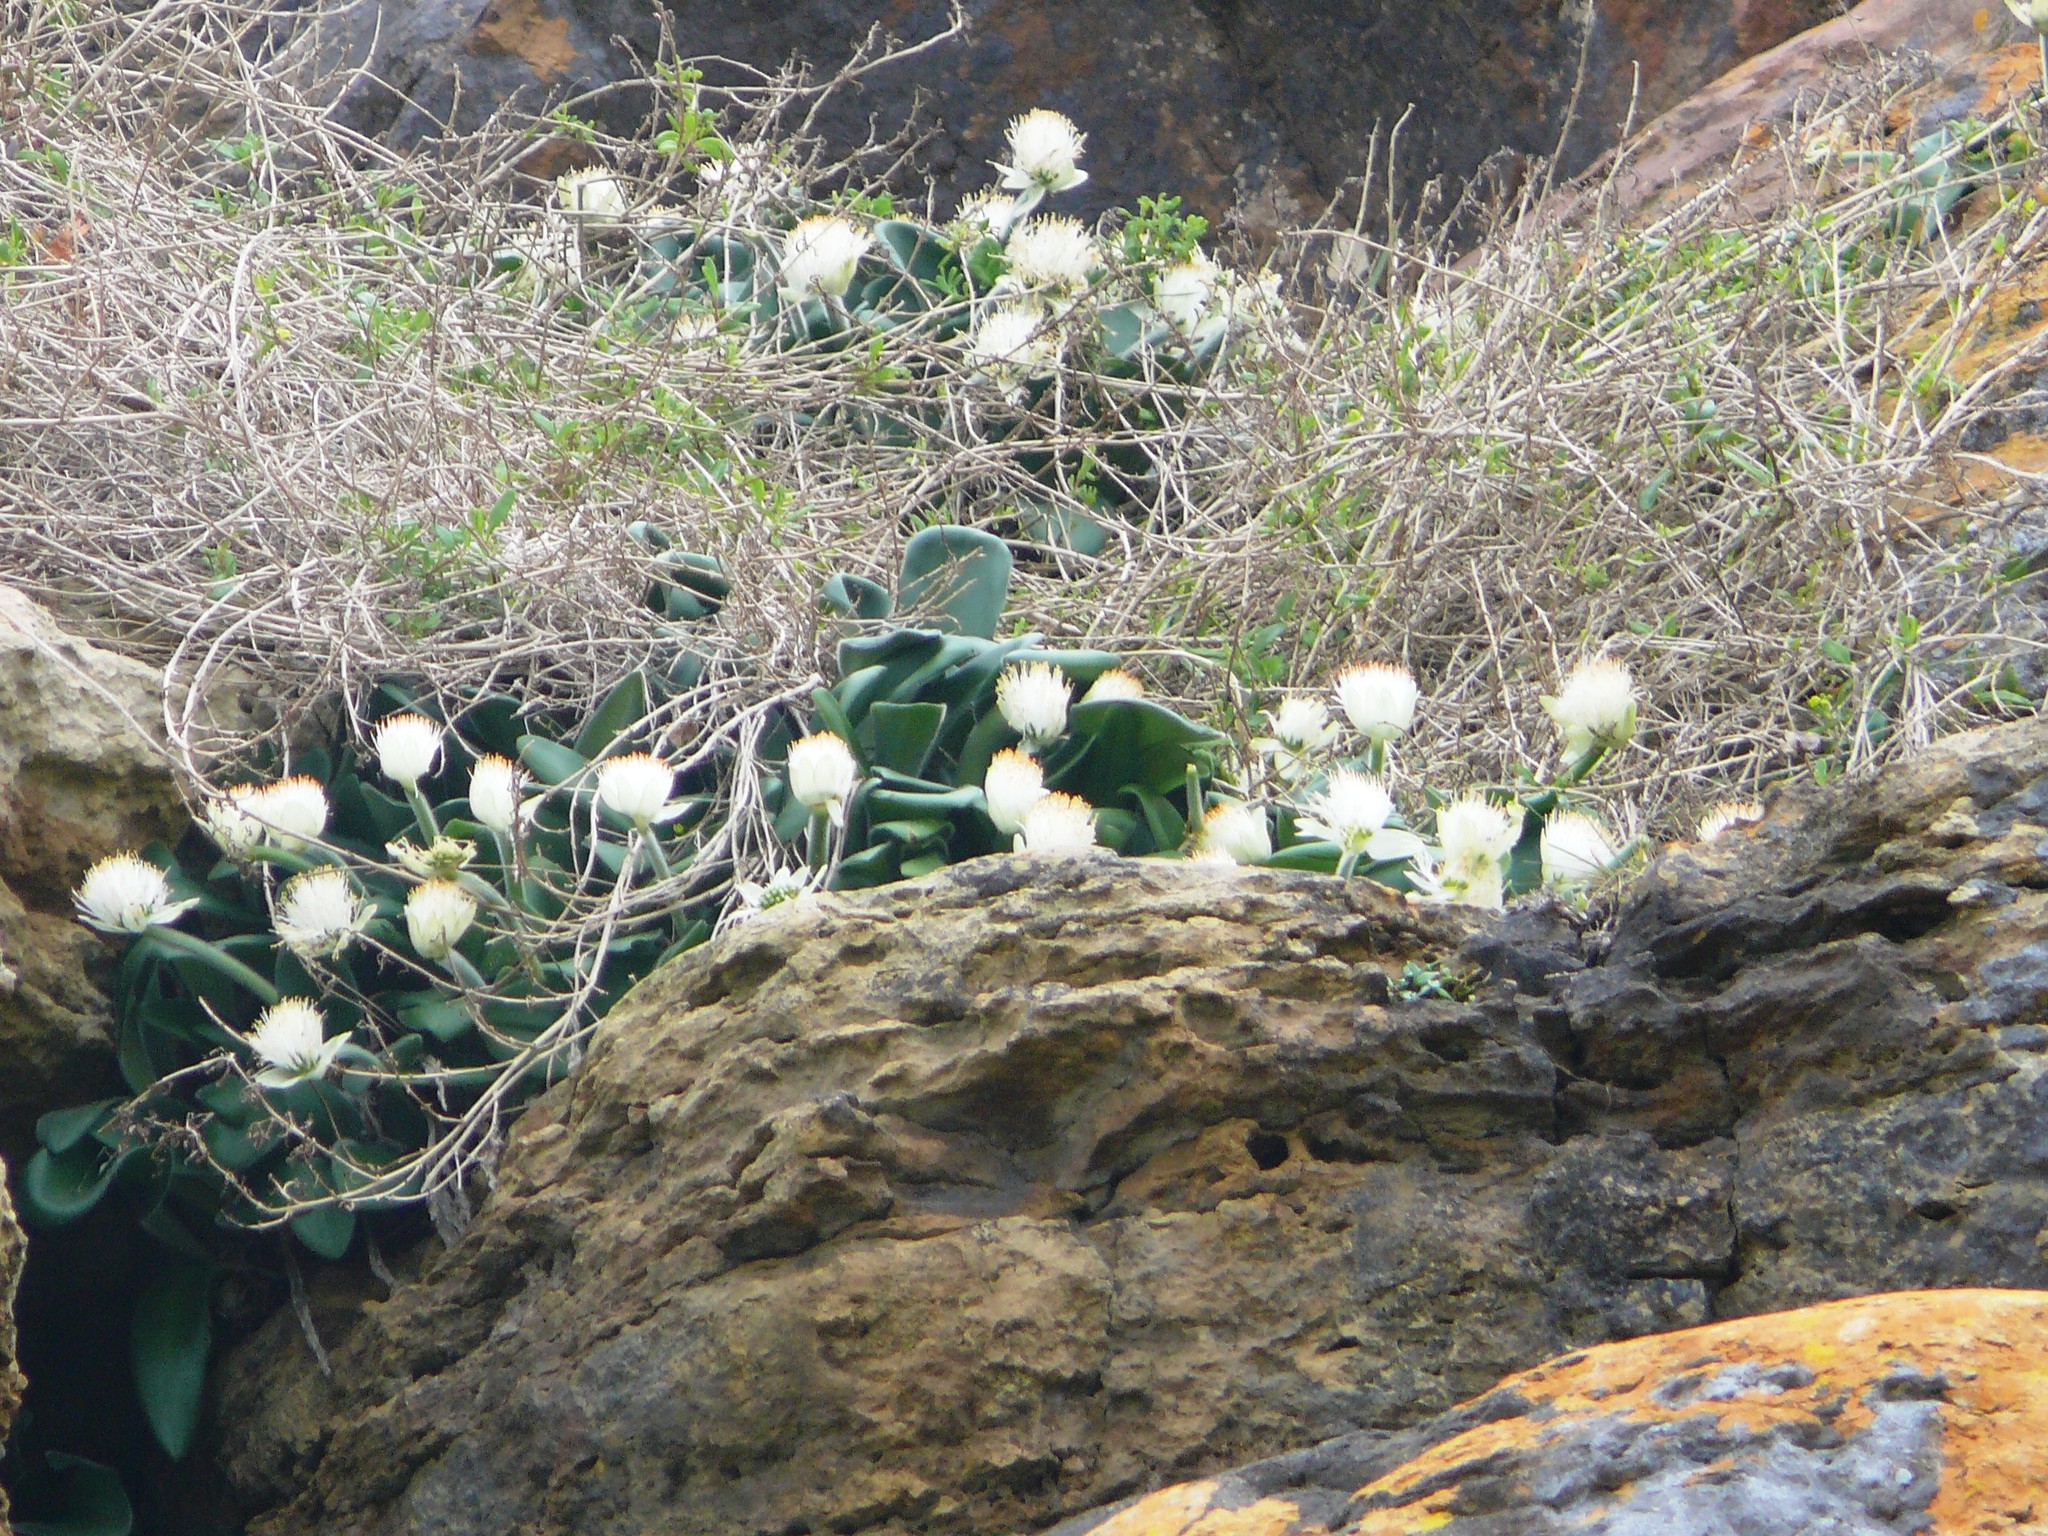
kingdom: Plantae
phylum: Tracheophyta
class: Liliopsida
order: Asparagales
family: Amaryllidaceae
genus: Haemanthus
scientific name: Haemanthus albiflos
